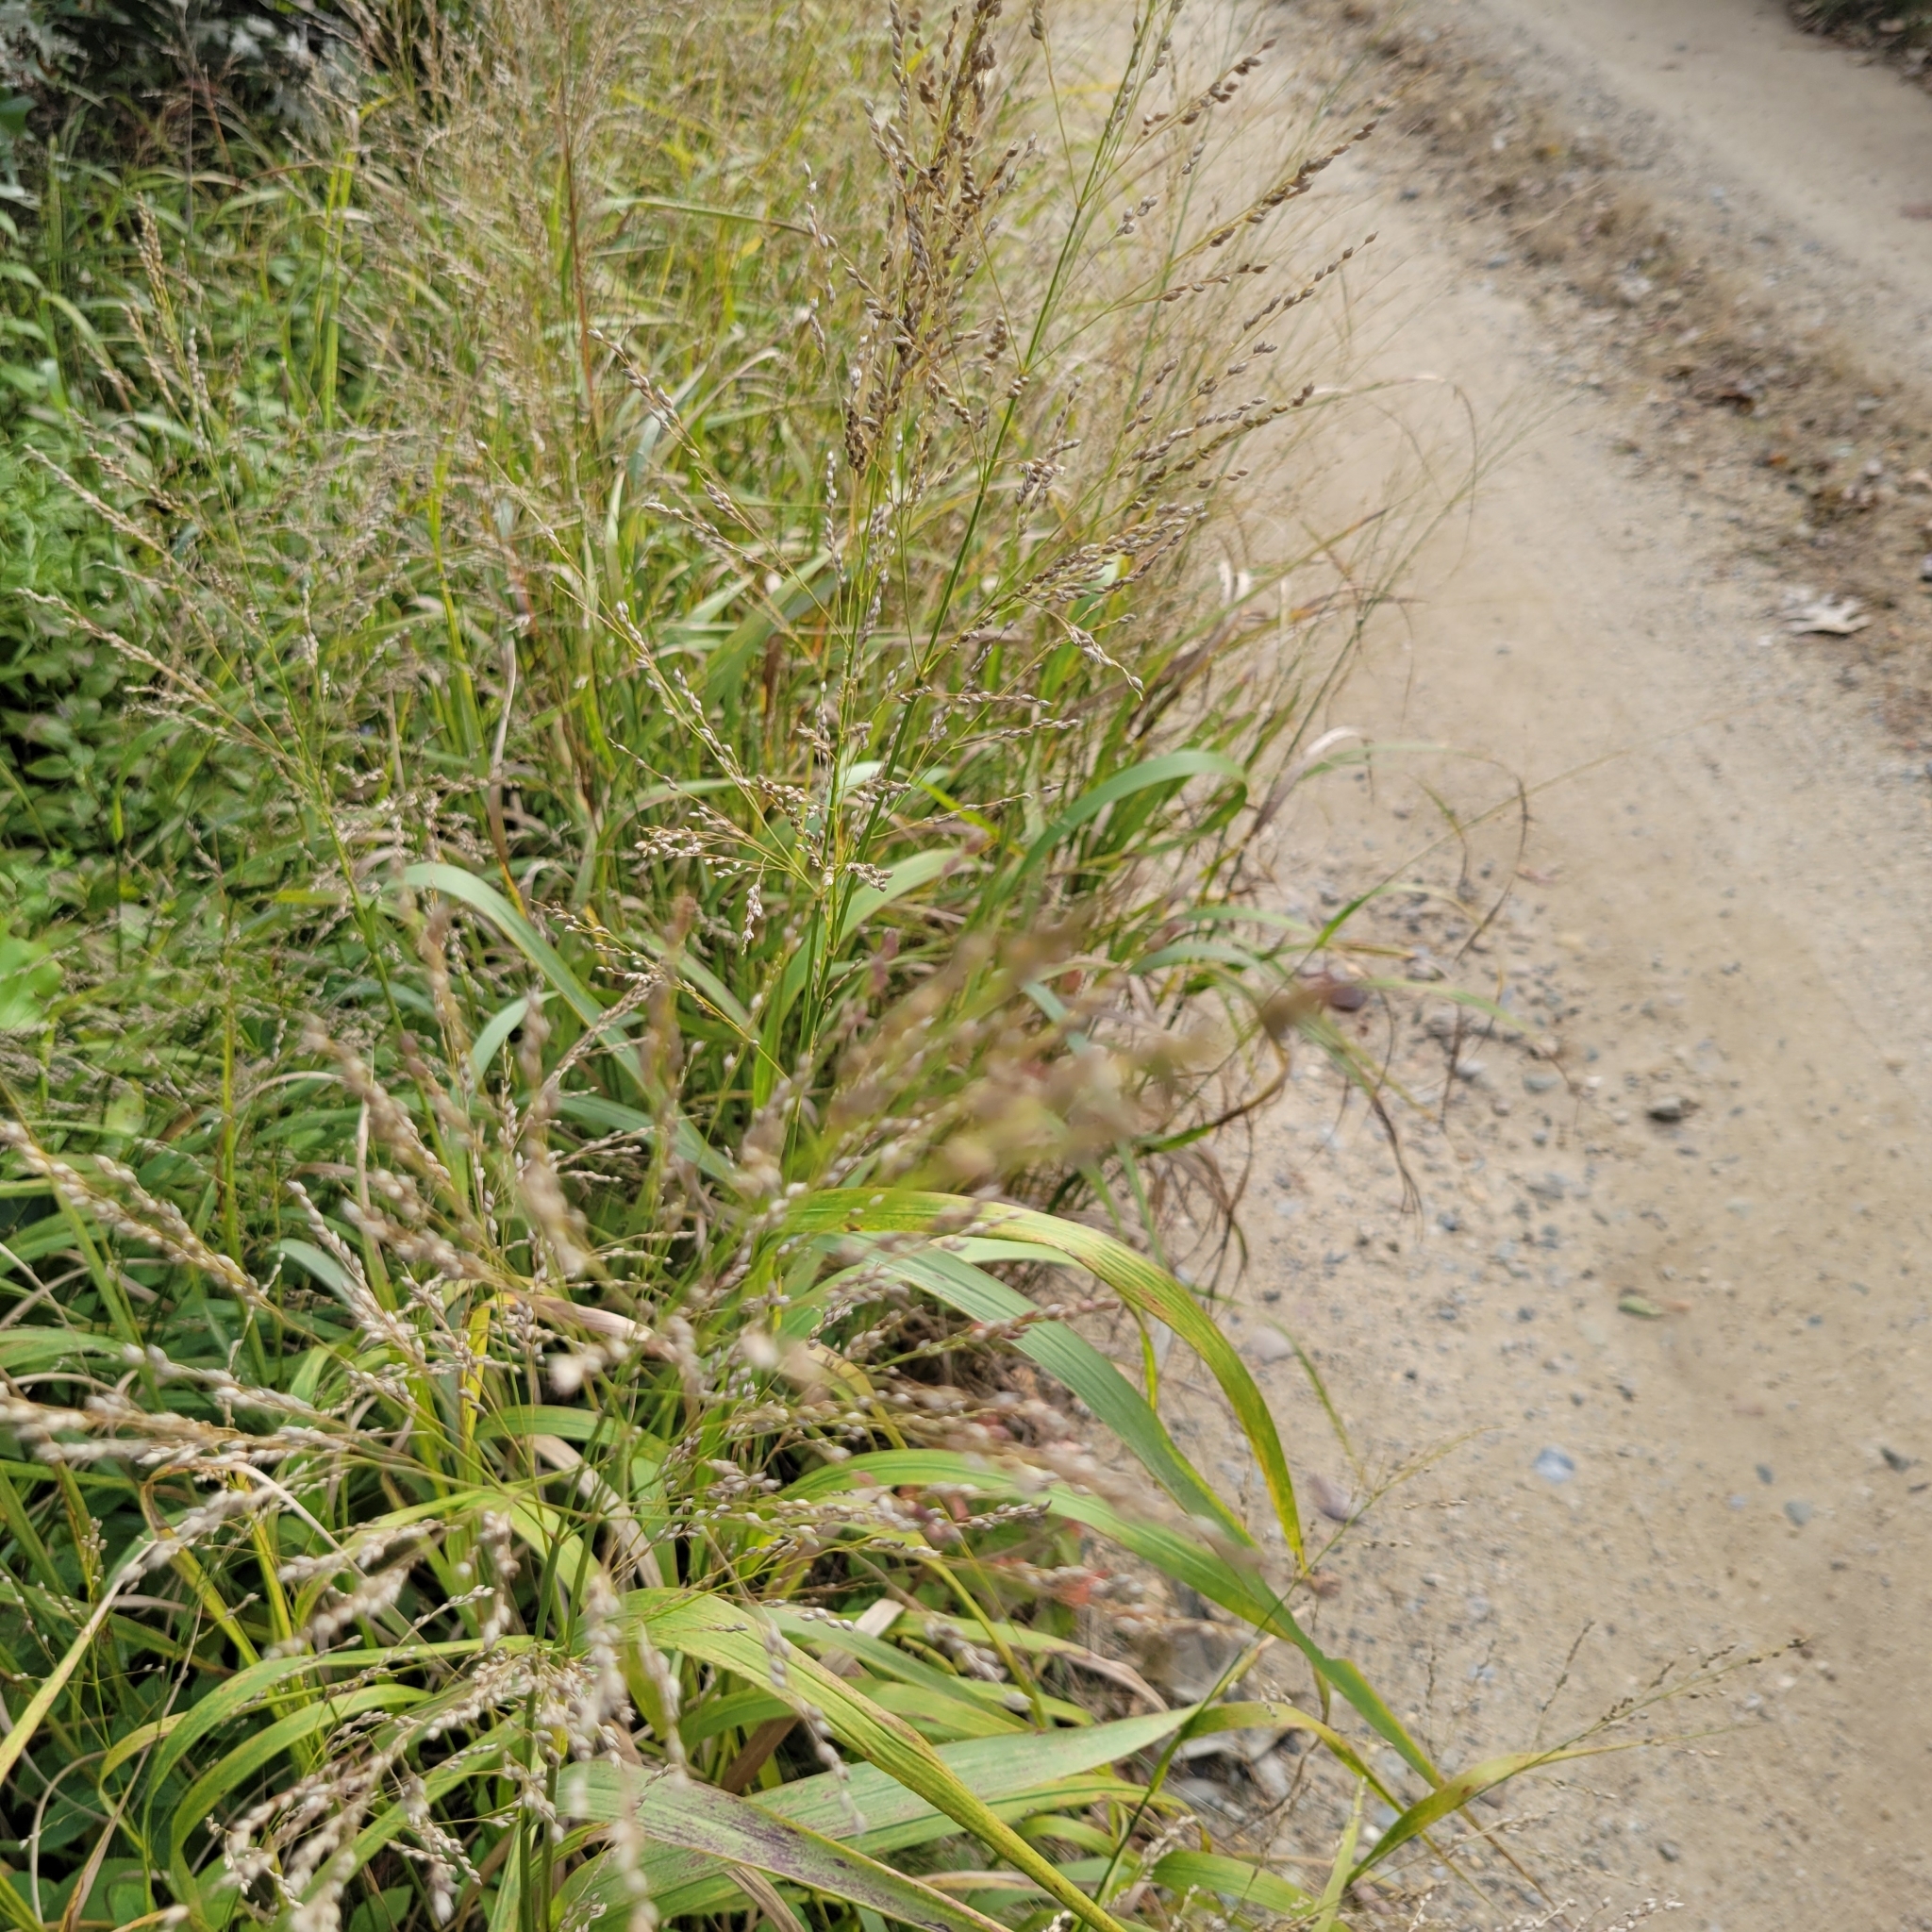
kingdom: Plantae
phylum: Tracheophyta
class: Liliopsida
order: Poales
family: Poaceae
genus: Panicum
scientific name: Panicum virgatum
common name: Switchgrass
